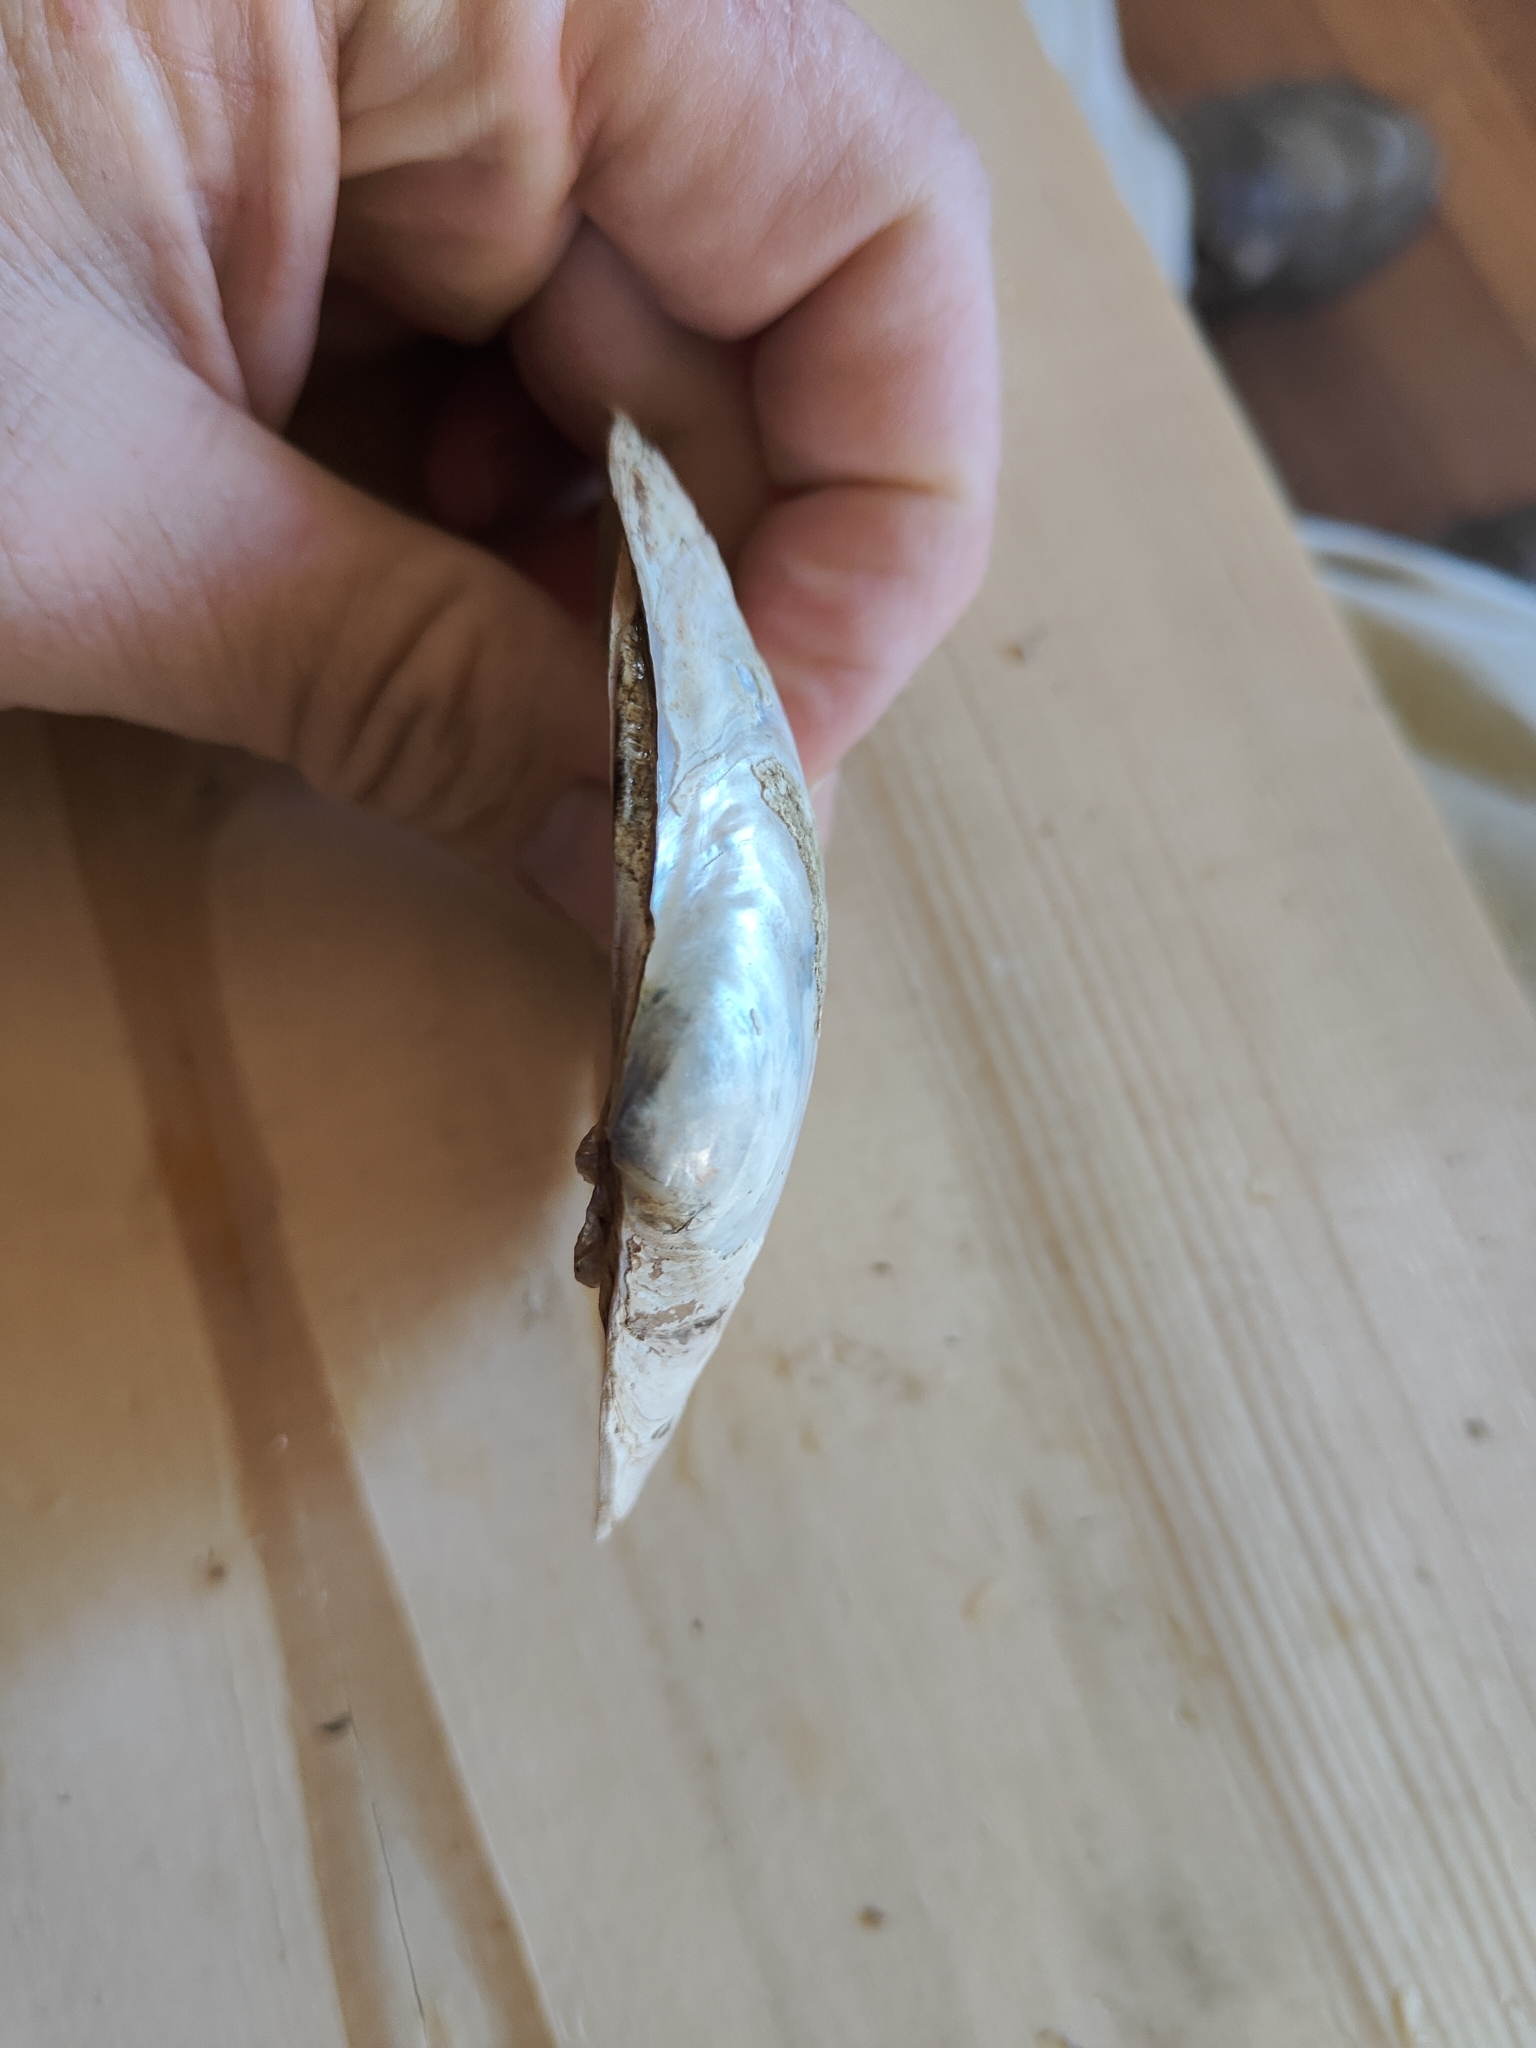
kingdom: Animalia
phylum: Mollusca
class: Bivalvia
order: Unionida
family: Unionidae
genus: Lampsilis
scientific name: Lampsilis cardium
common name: Plain pocketbook
